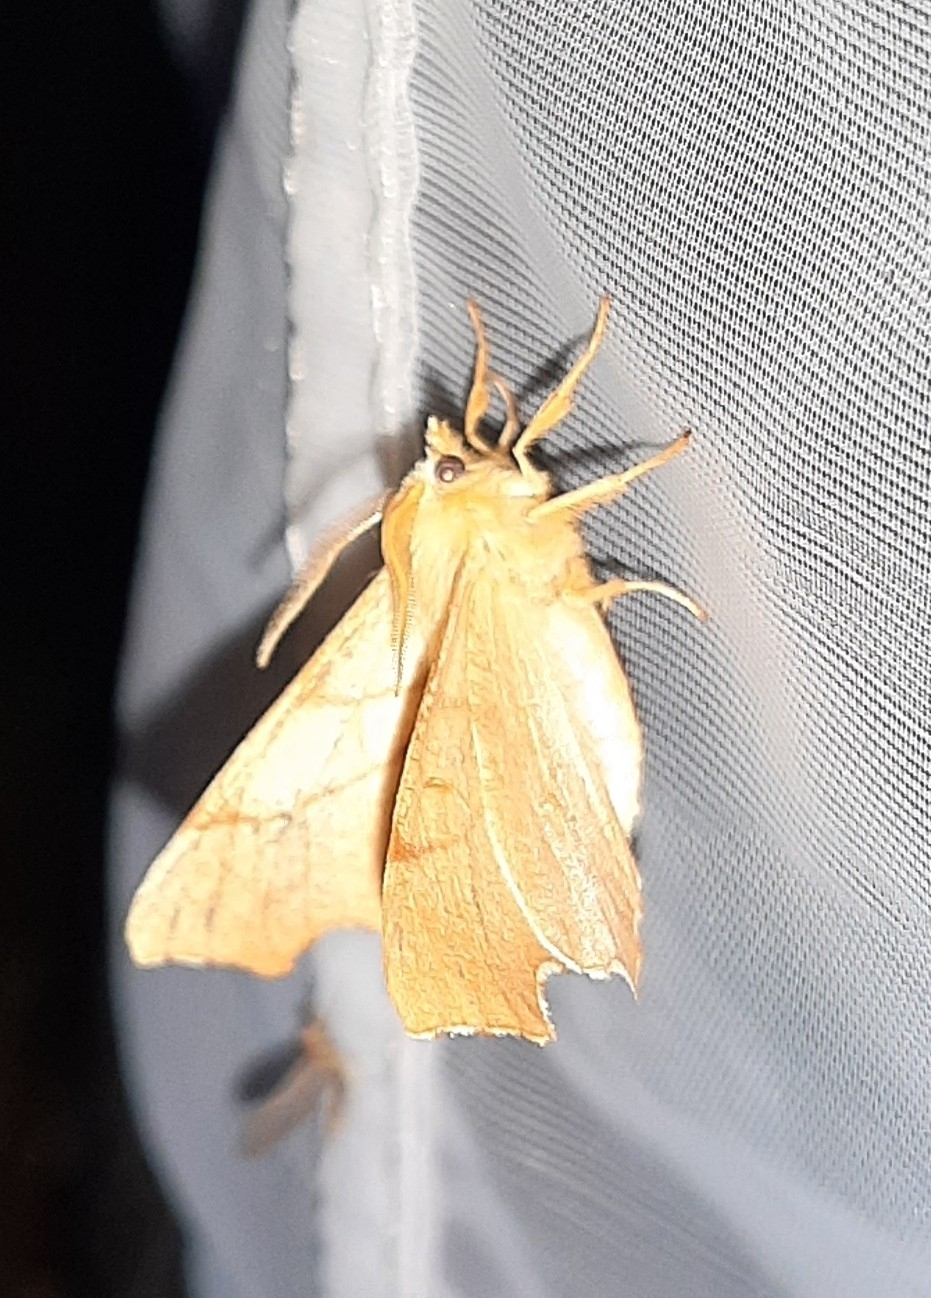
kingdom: Animalia
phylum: Arthropoda
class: Insecta
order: Lepidoptera
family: Geometridae
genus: Ennomos
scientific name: Ennomos fuscantaria
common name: Dusky thorn
